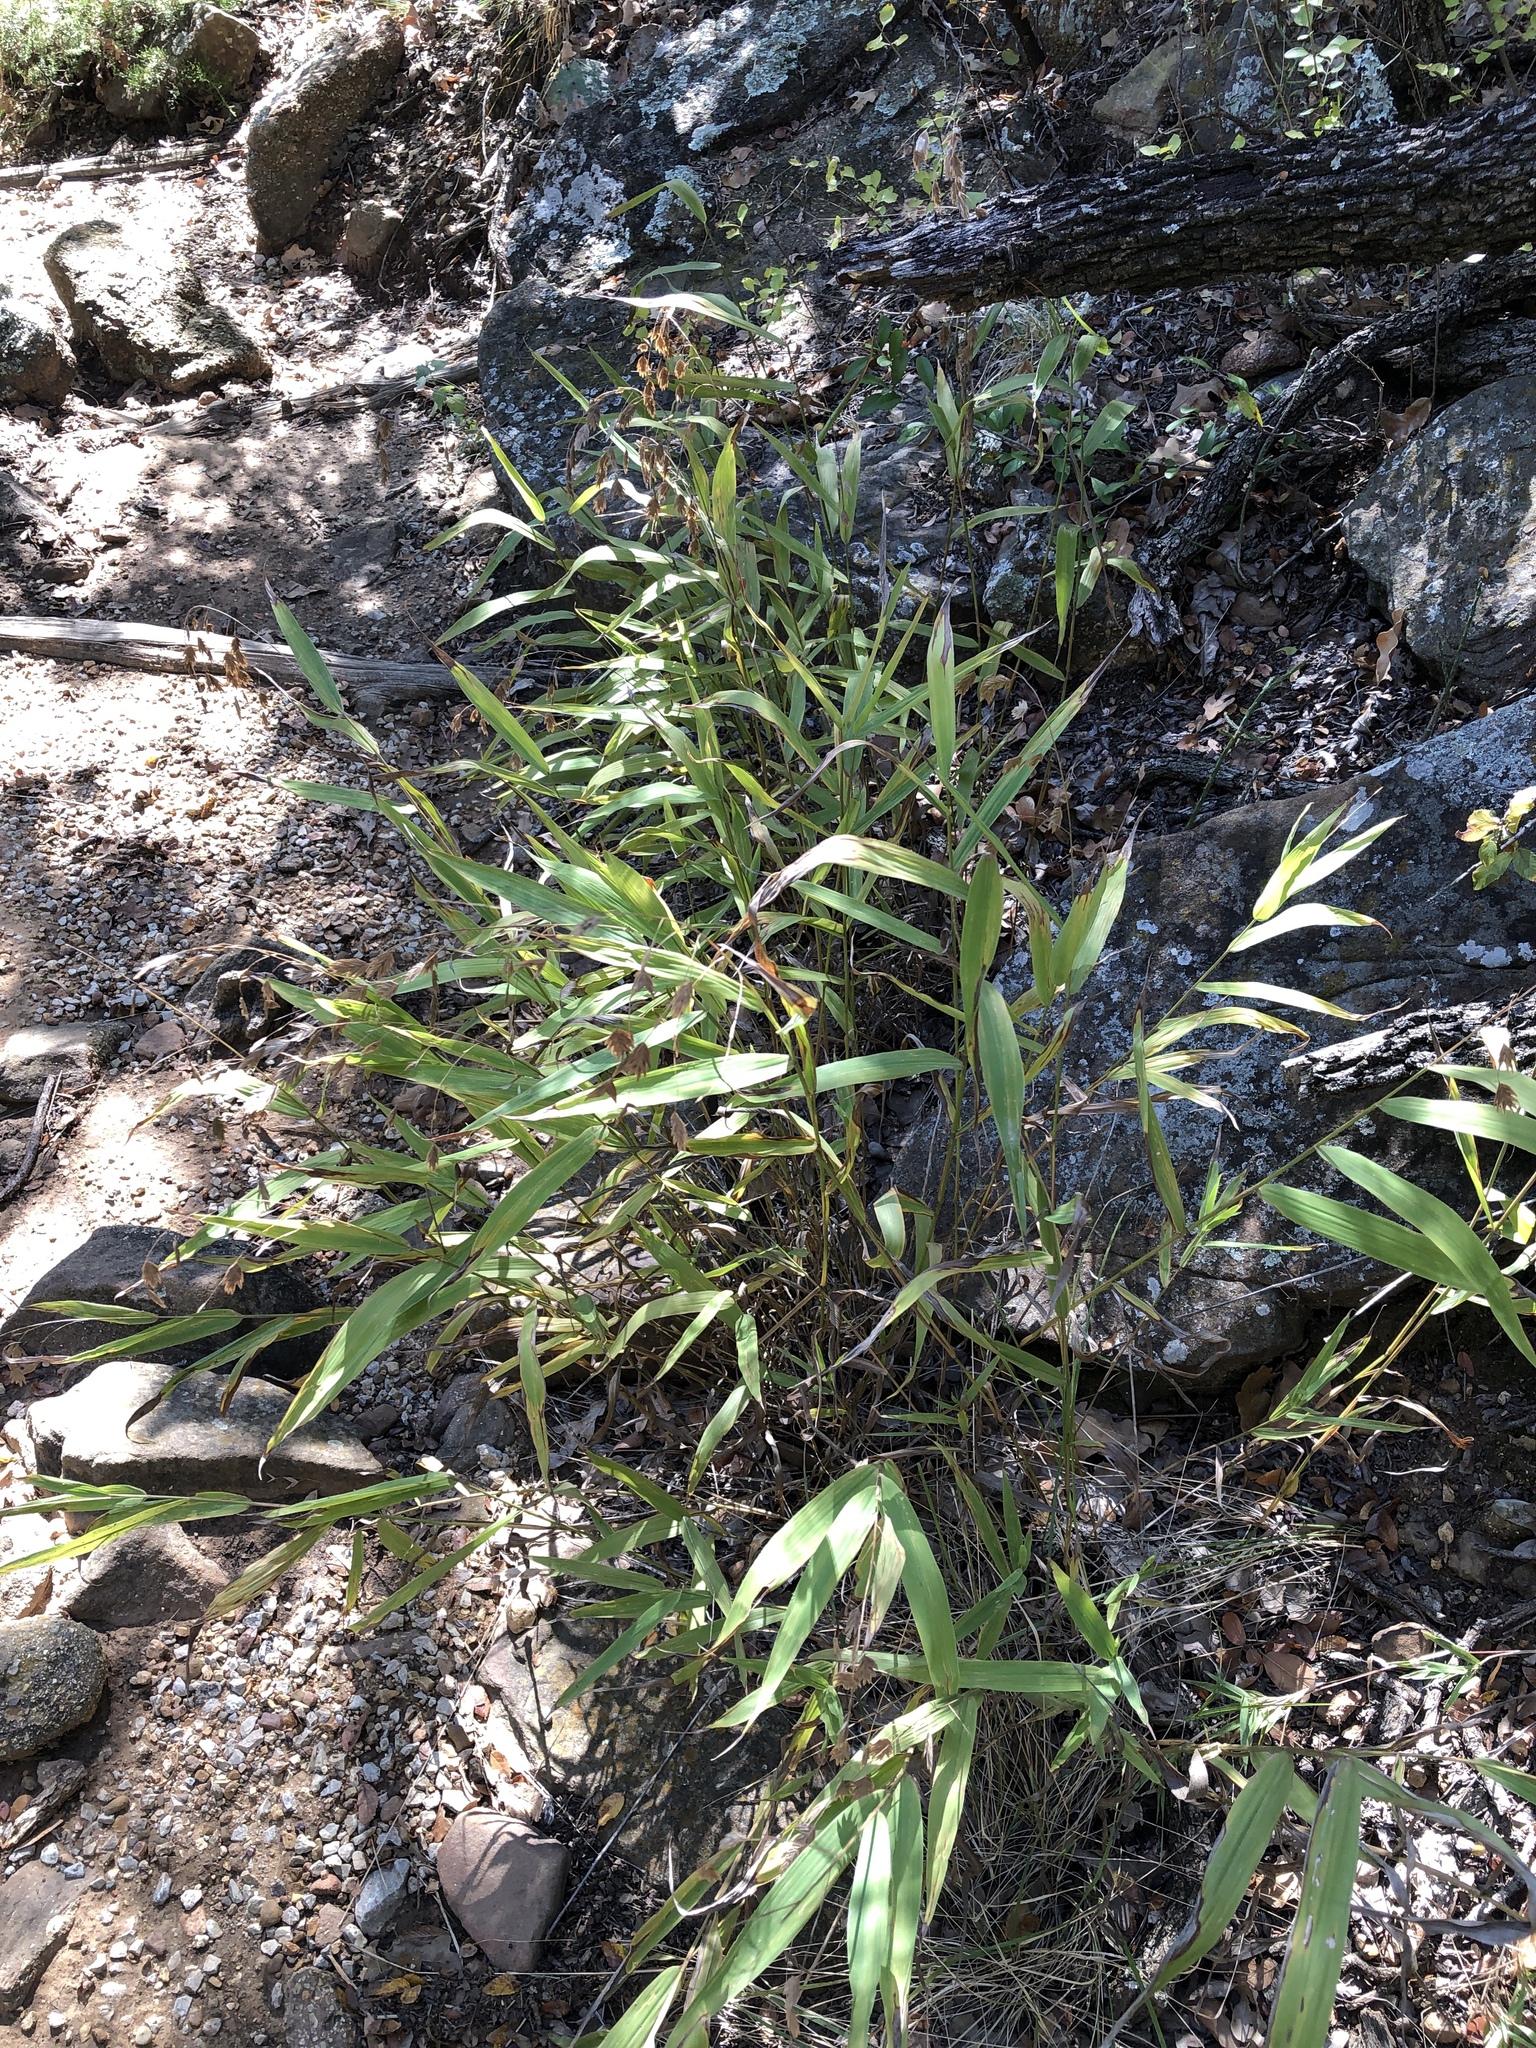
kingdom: Plantae
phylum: Tracheophyta
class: Liliopsida
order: Poales
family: Poaceae
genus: Chasmanthium
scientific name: Chasmanthium latifolium
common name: Broad-leaved chasmanthium
